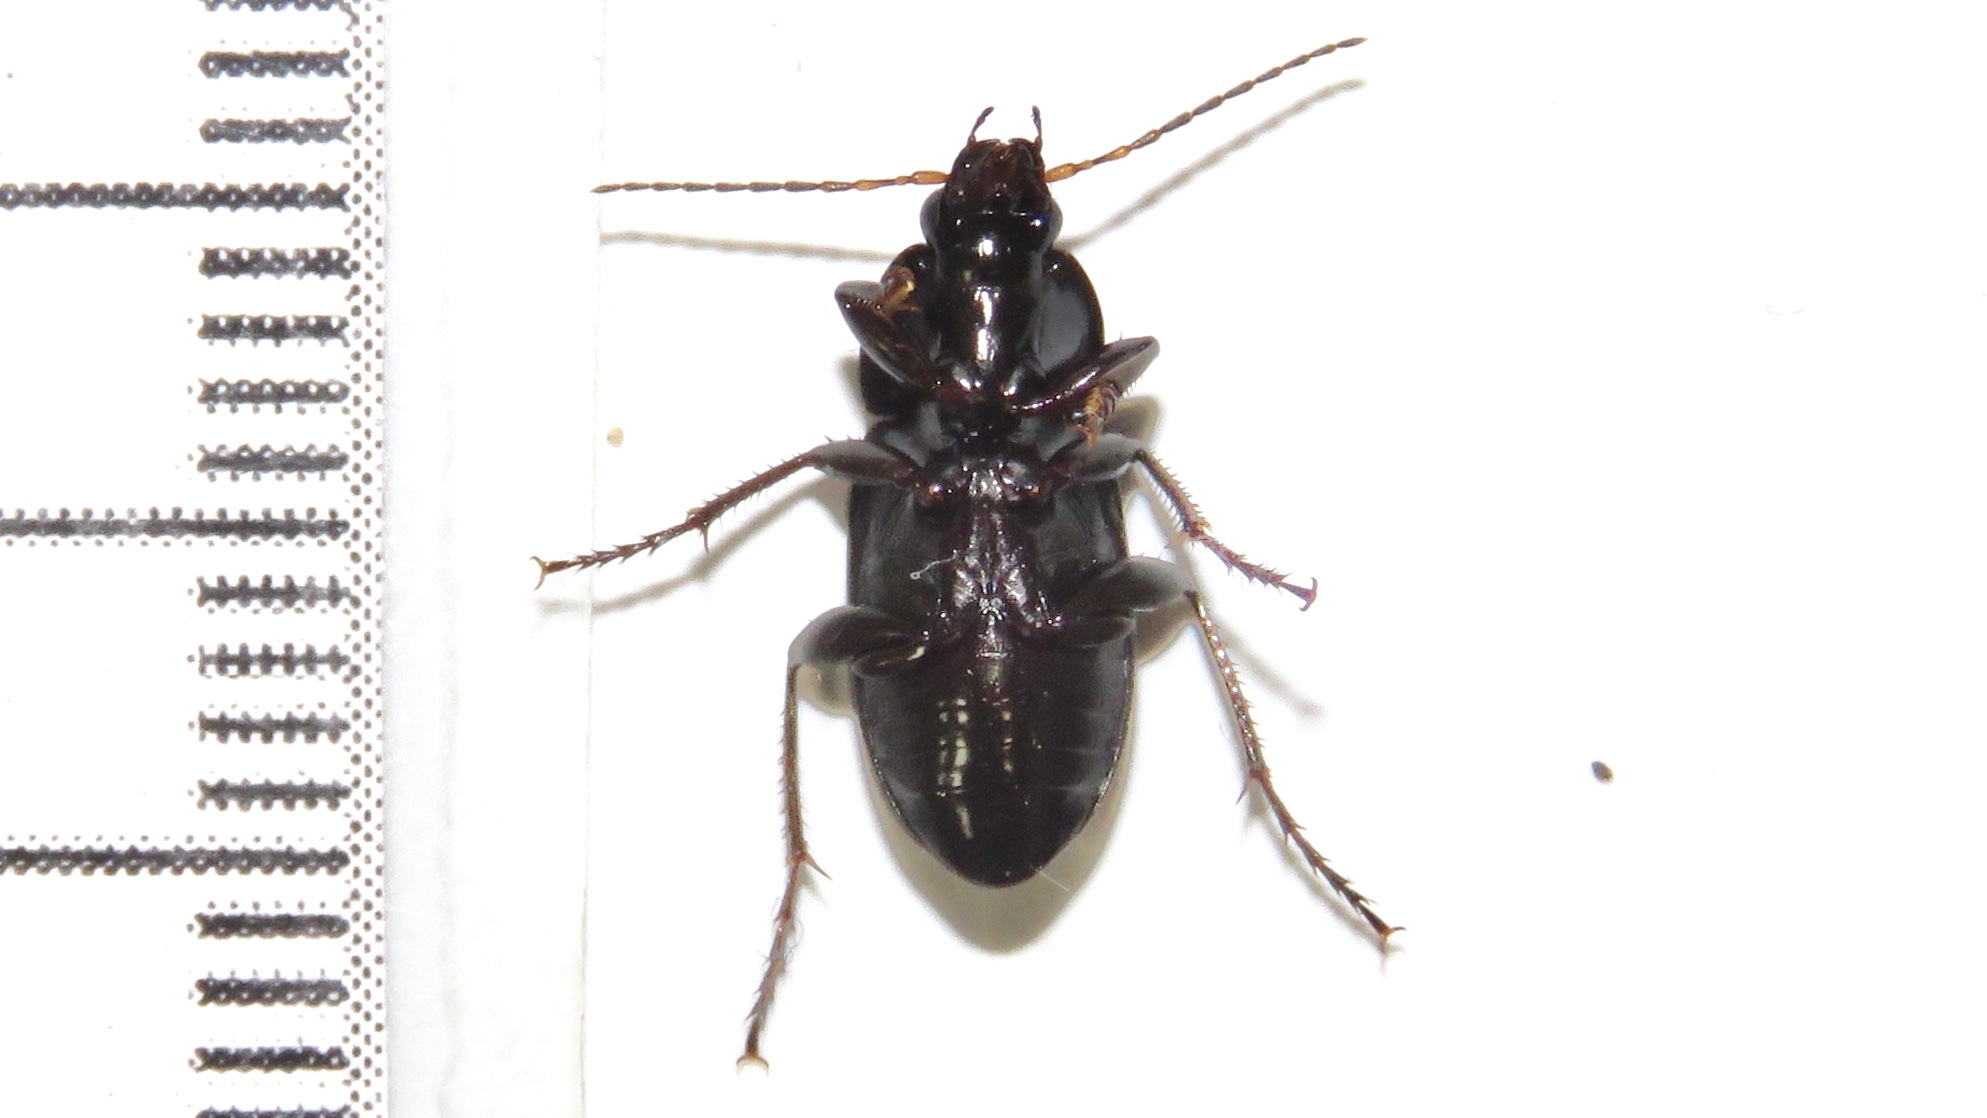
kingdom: Animalia
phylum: Arthropoda
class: Insecta
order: Coleoptera
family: Carabidae
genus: Poecilus
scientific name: Poecilus lucublandus
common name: Woodland ground beetle
